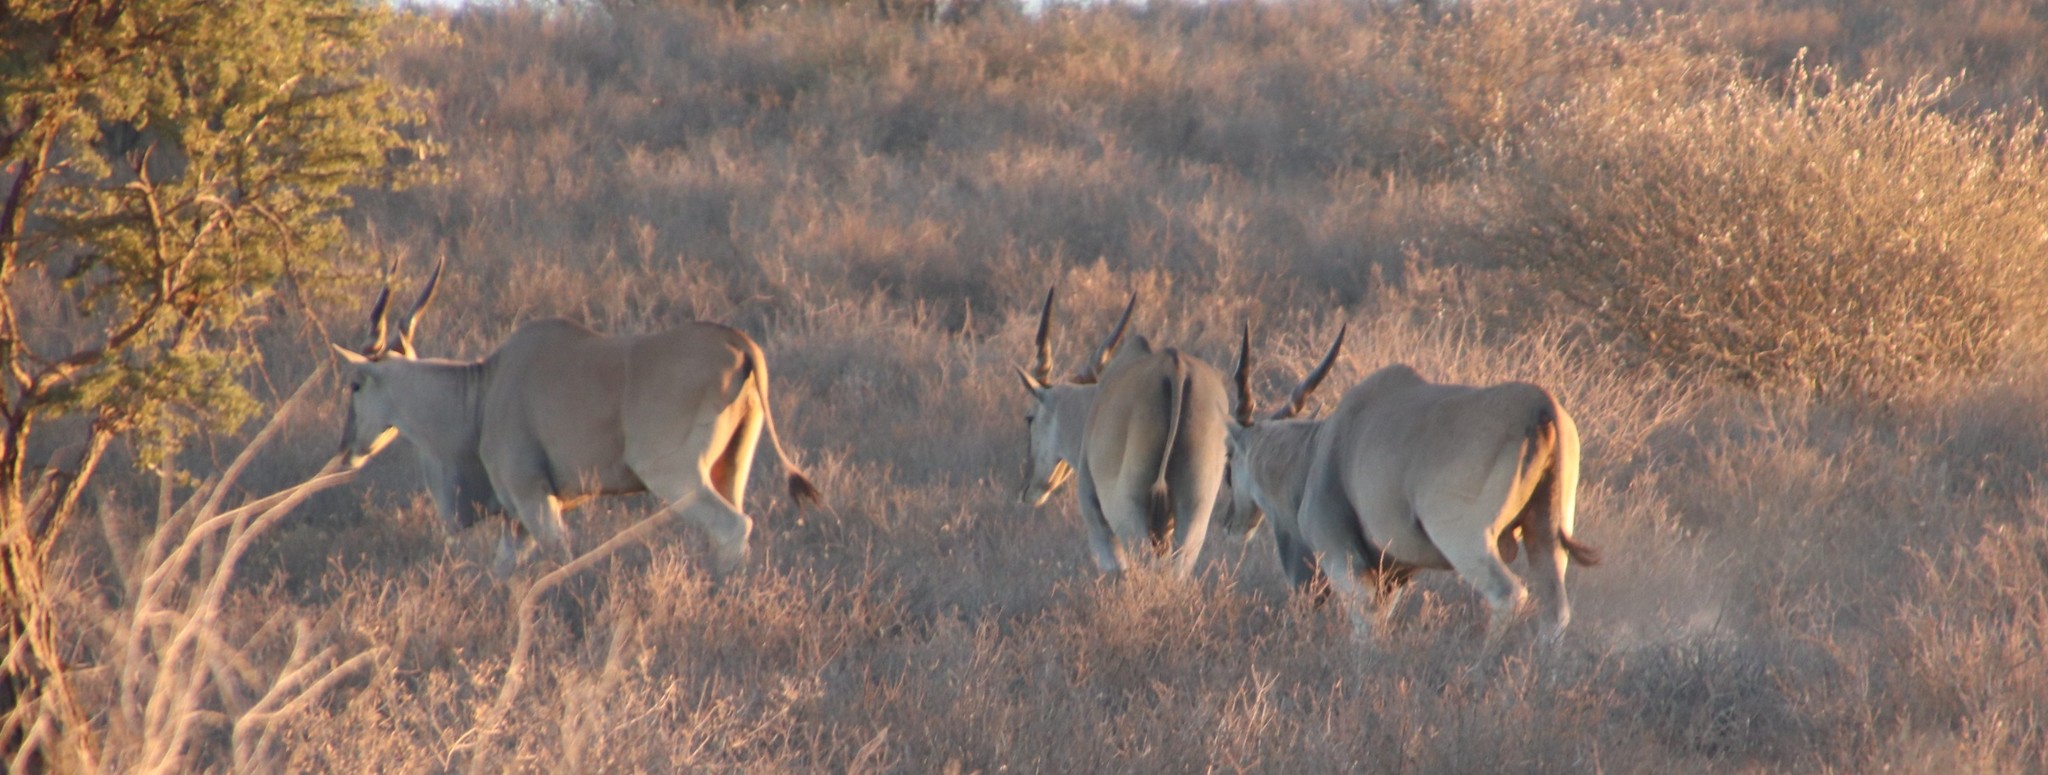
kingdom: Animalia
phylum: Chordata
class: Mammalia
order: Artiodactyla
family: Bovidae
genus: Taurotragus
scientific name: Taurotragus oryx
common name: Common eland
